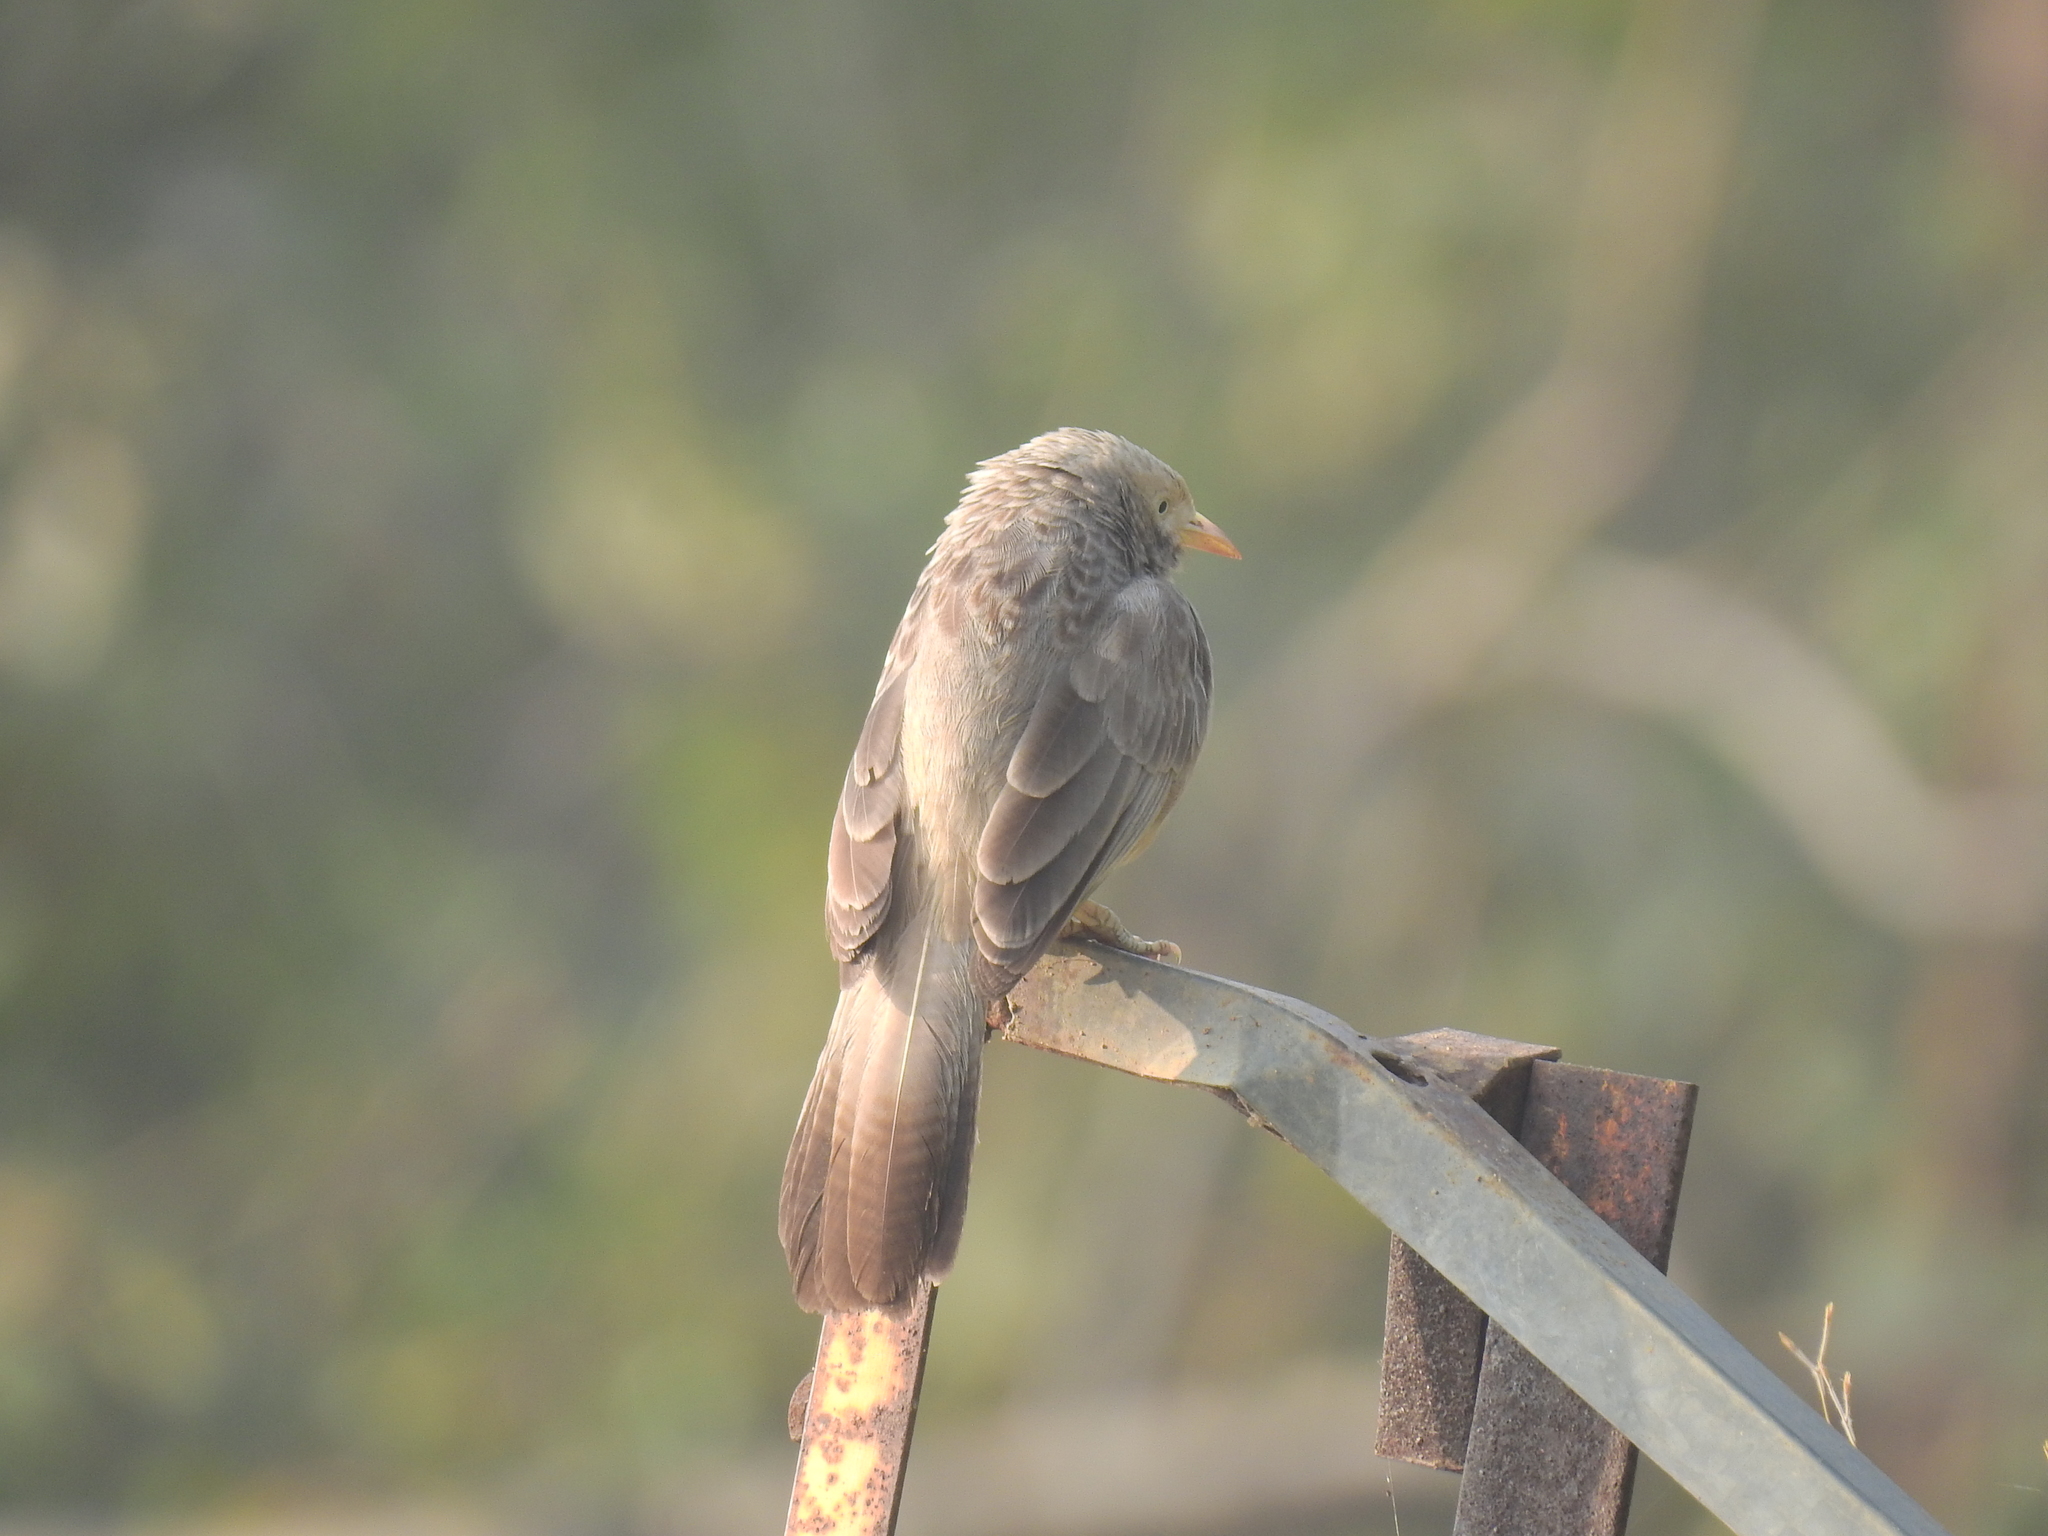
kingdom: Animalia
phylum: Chordata
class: Aves
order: Passeriformes
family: Leiothrichidae
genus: Turdoides
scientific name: Turdoides affinis
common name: Yellow-billed babbler
